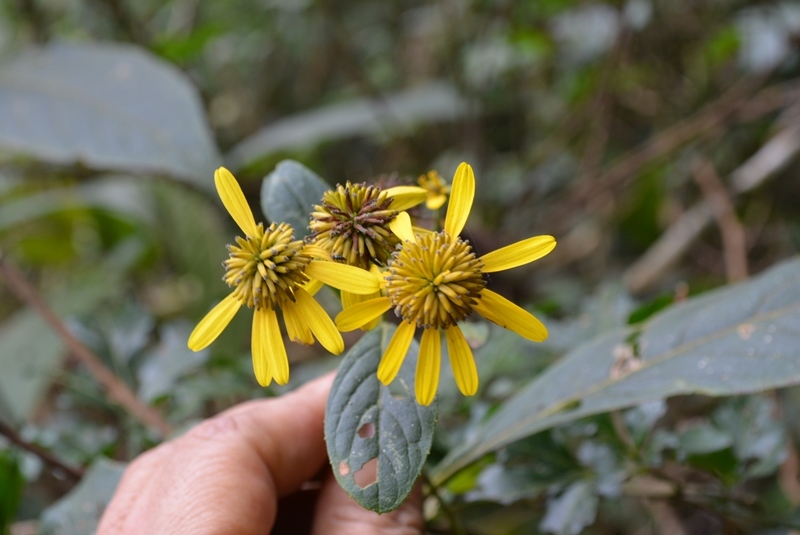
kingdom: Plantae
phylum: Tracheophyta
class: Magnoliopsida
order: Asterales
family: Asteraceae
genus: Verbesina
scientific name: Verbesina neriifolia
